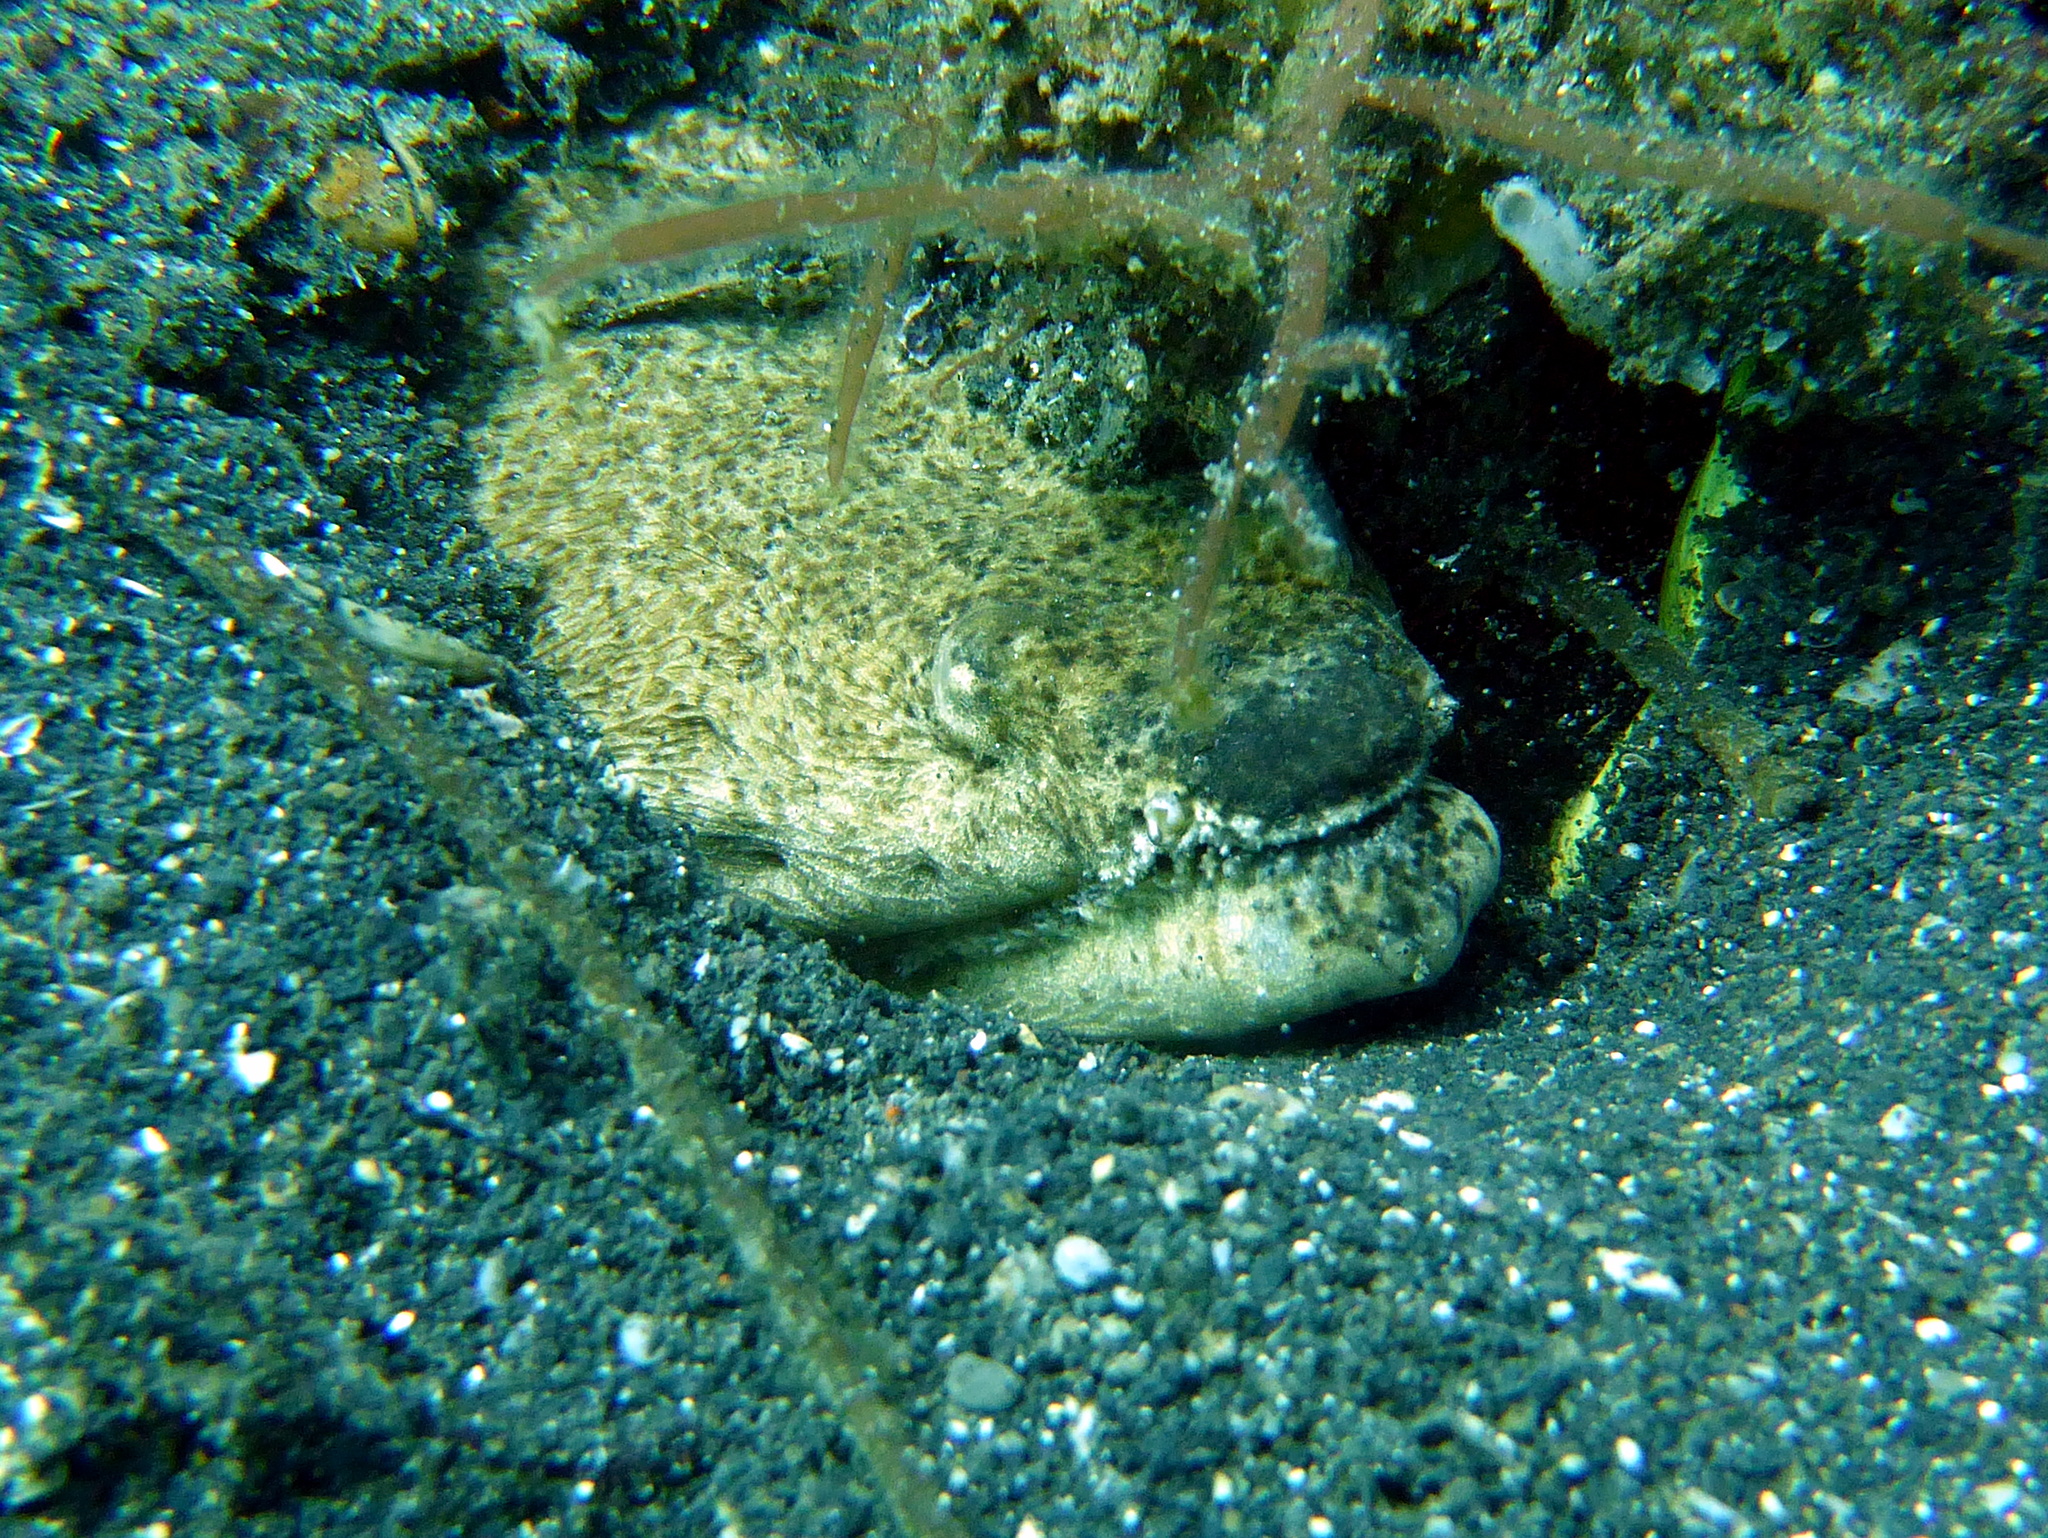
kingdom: Animalia
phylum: Chordata
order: Anguilliformes
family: Ophichthidae
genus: Brachysomophis
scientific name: Brachysomophis cirrocheilos
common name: Stargazer snake eel
